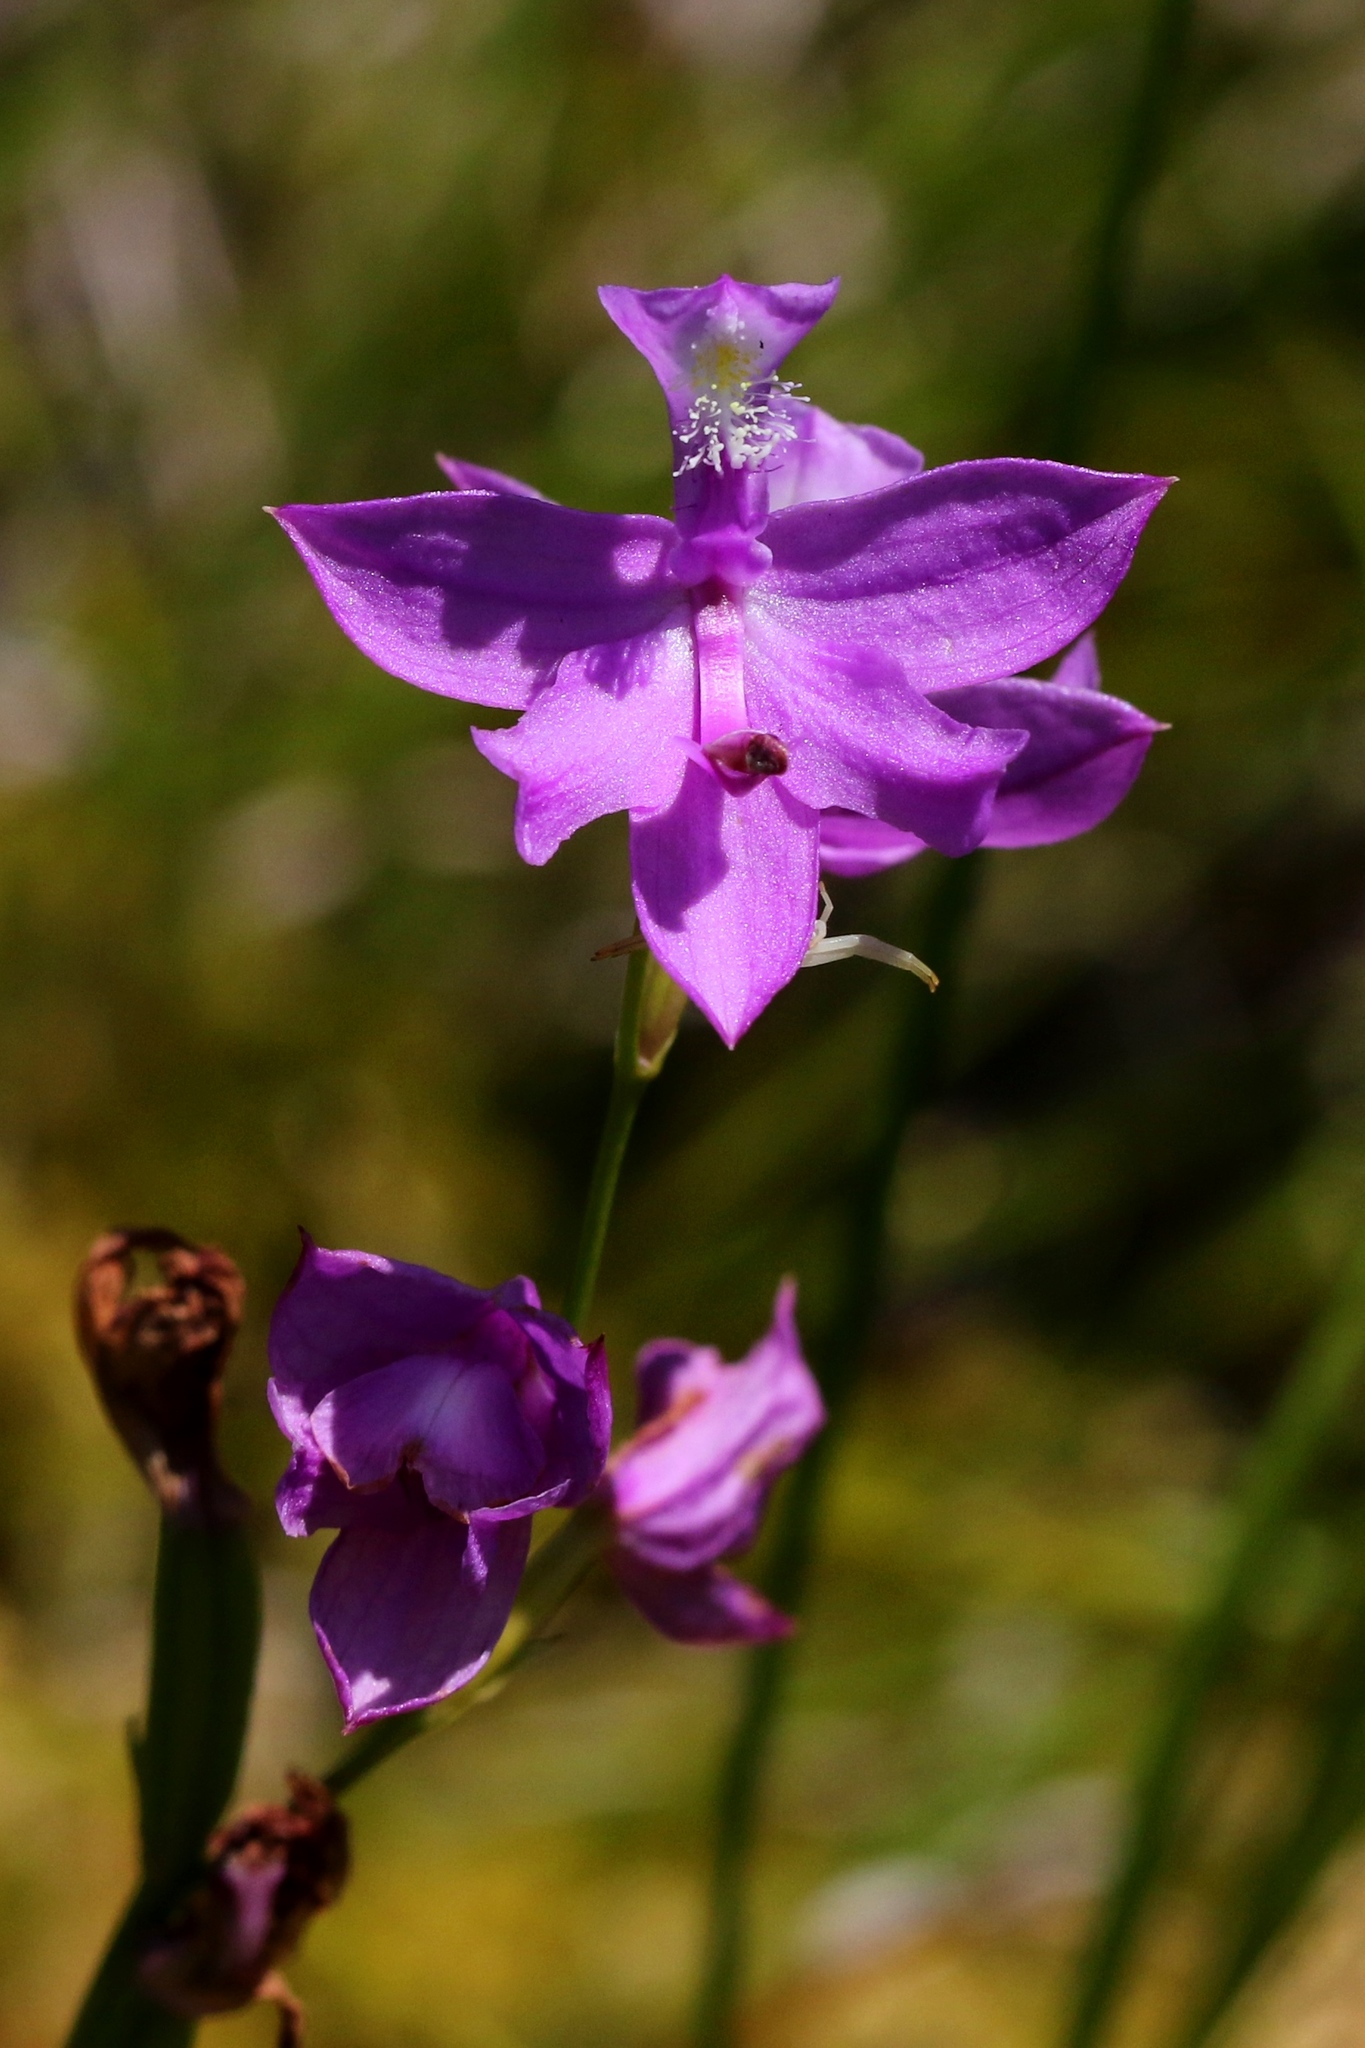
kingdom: Plantae
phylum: Tracheophyta
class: Liliopsida
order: Asparagales
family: Orchidaceae
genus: Calopogon
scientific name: Calopogon tuberosus
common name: Grass-pink
